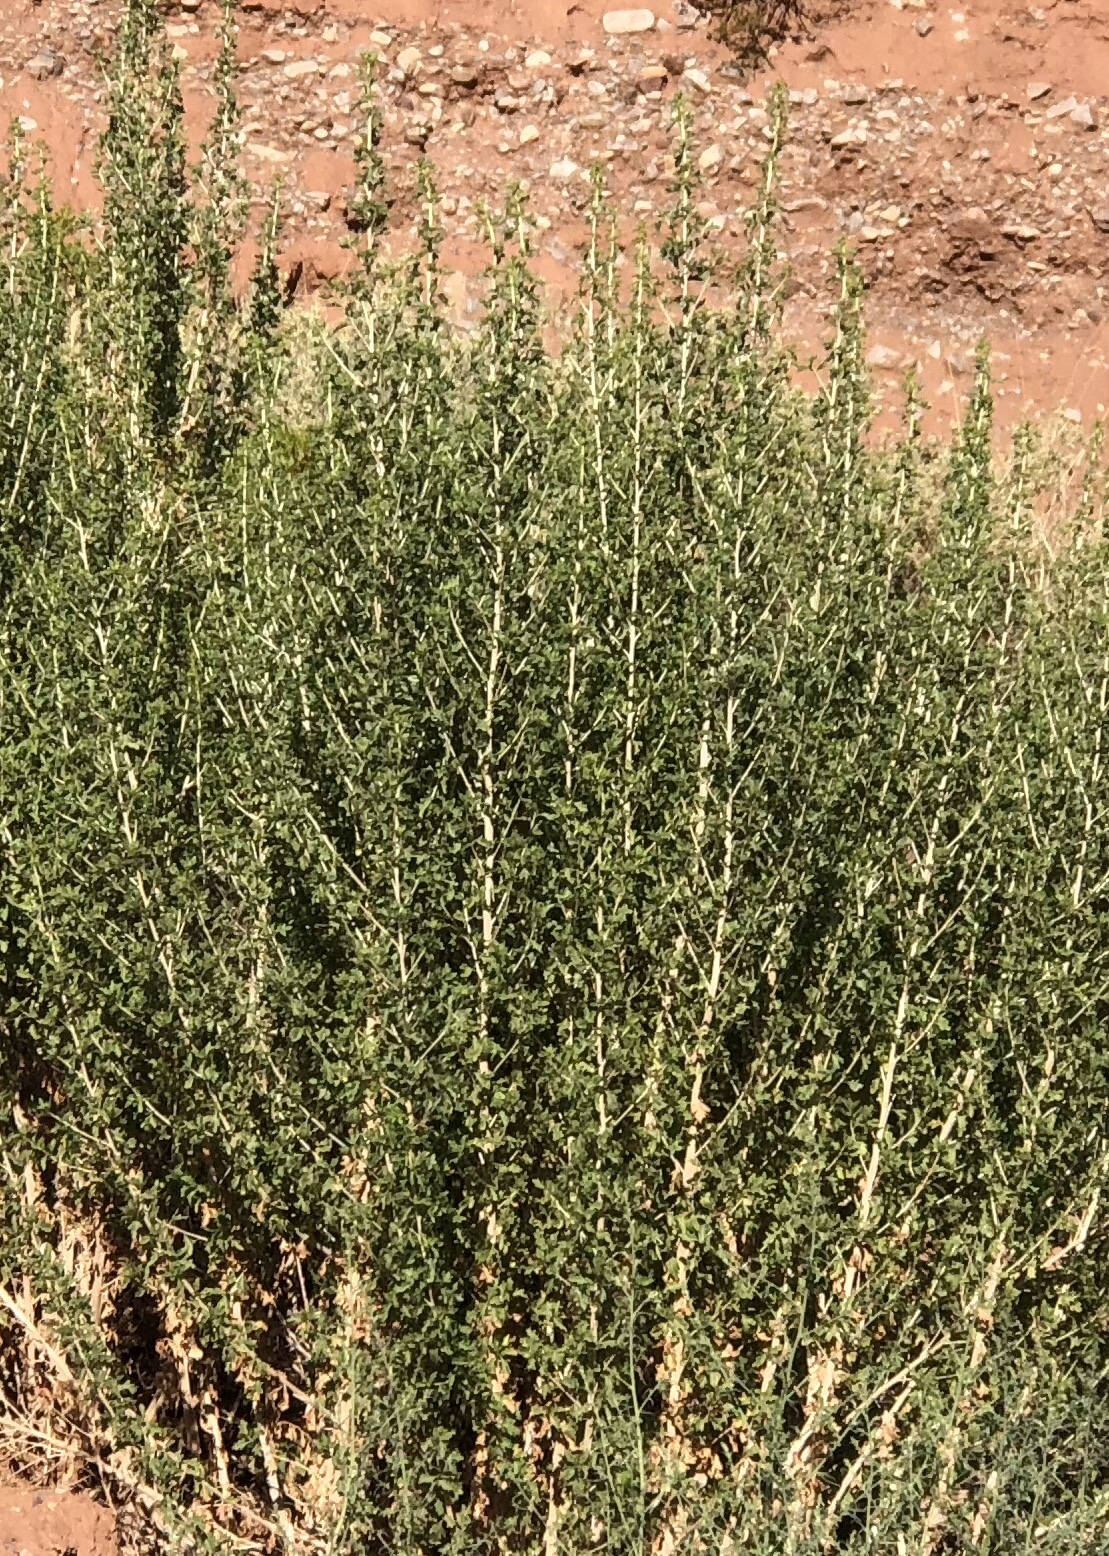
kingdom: Plantae
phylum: Tracheophyta
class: Magnoliopsida
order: Asterales
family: Asteraceae
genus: Brickellia
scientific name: Brickellia laciniata
